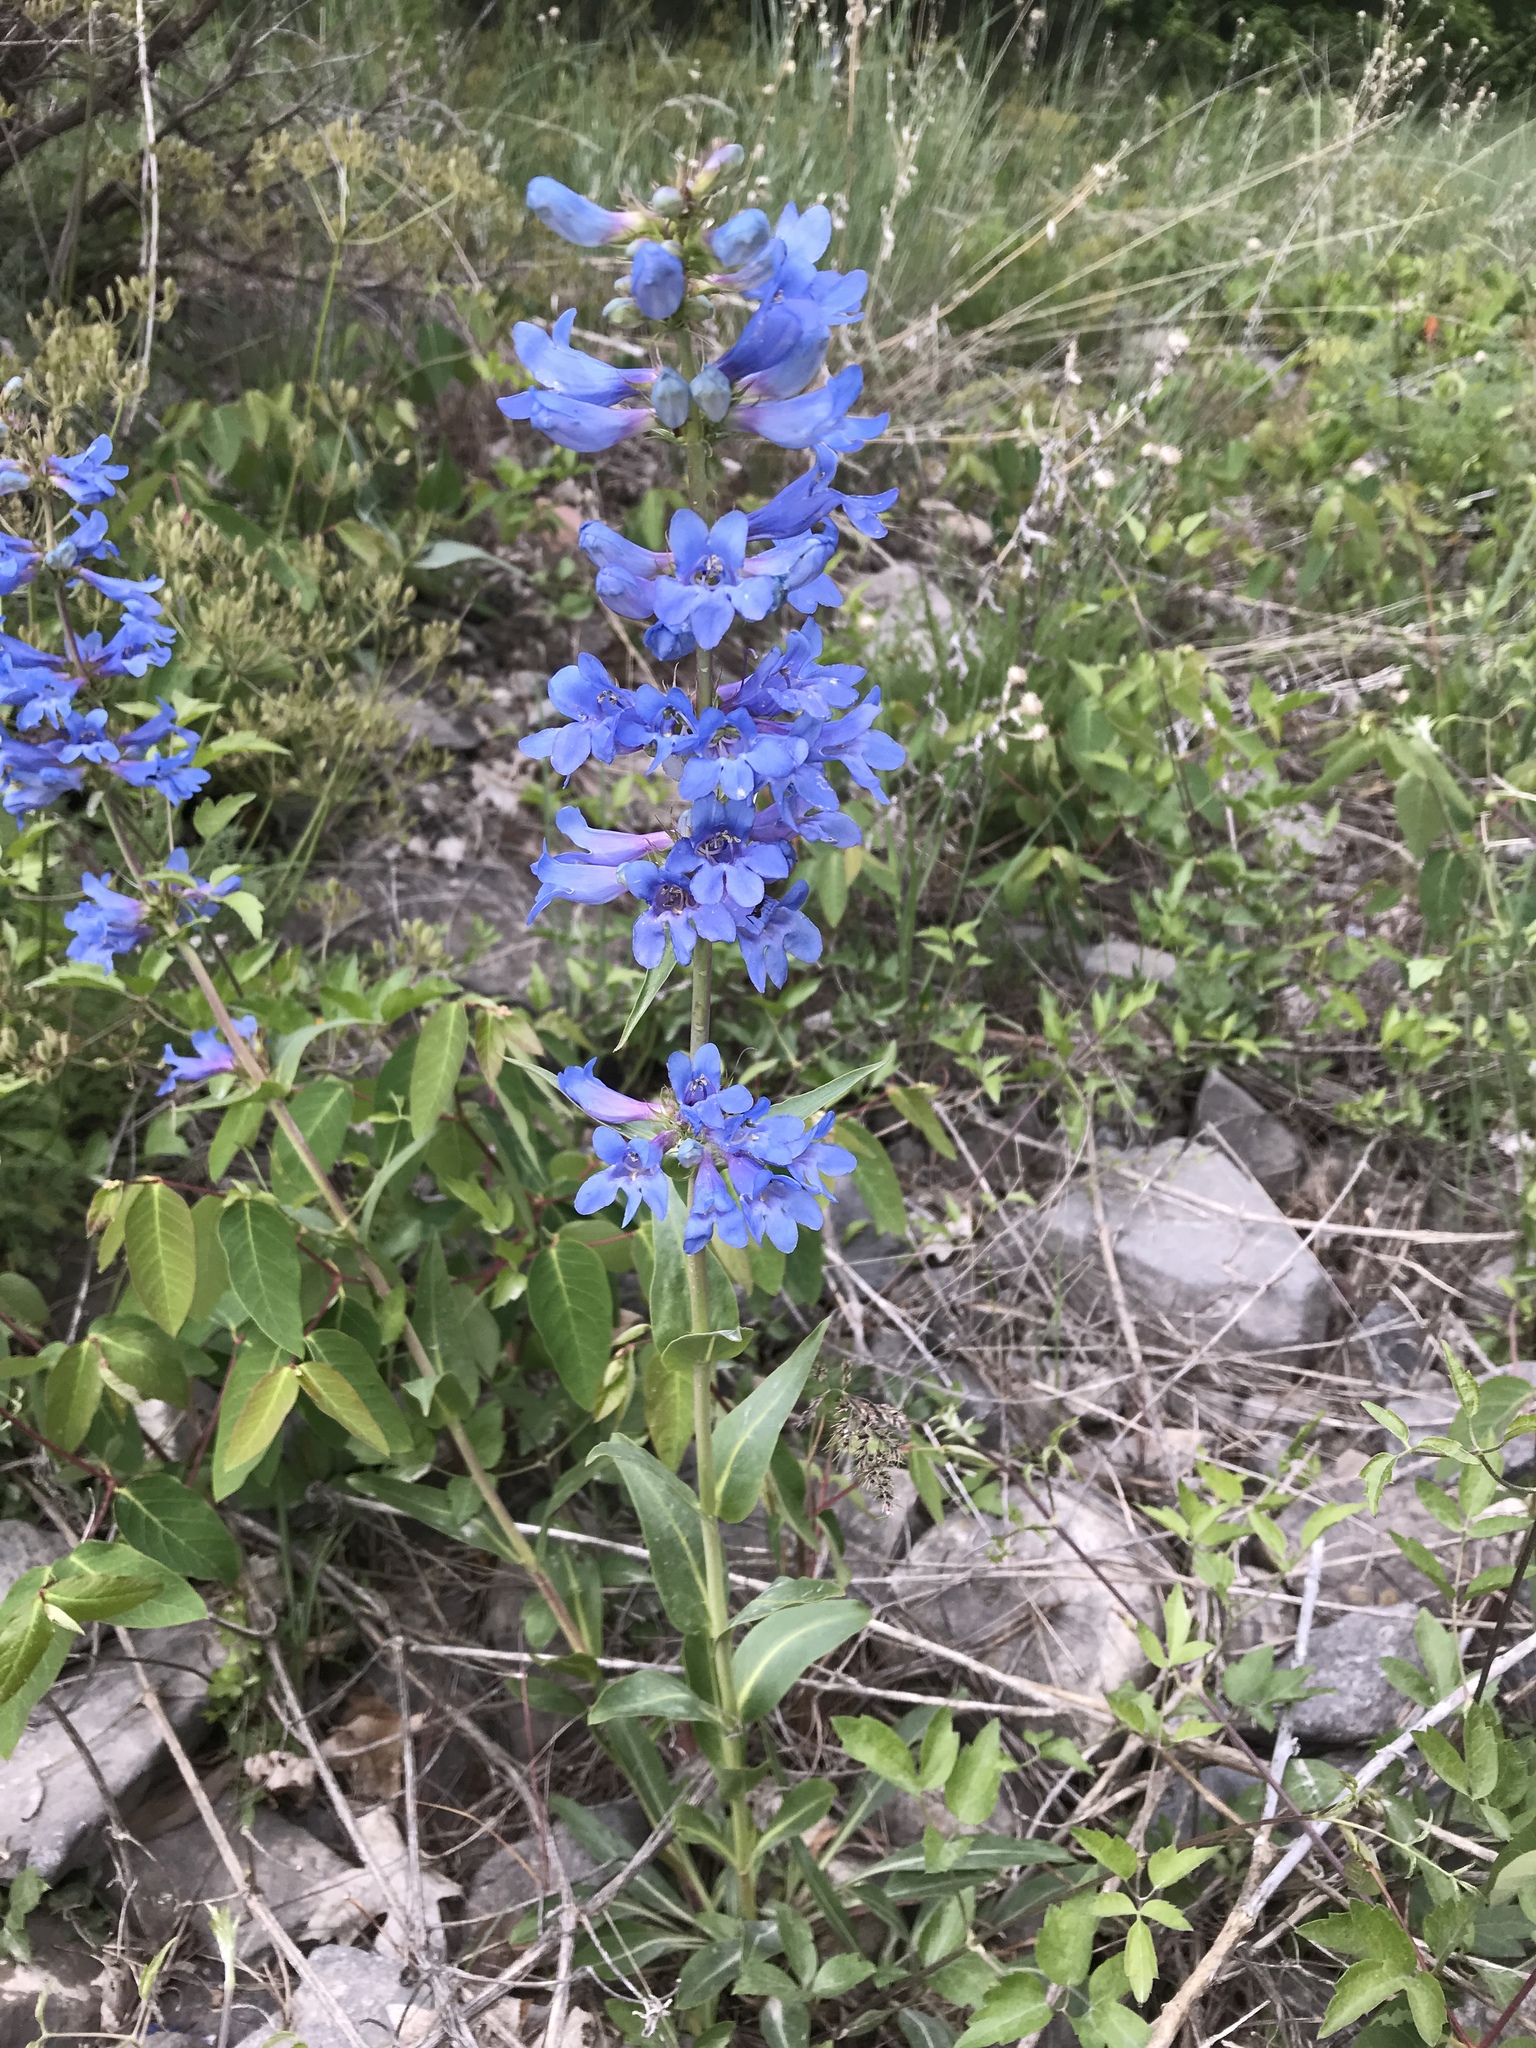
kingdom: Plantae
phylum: Tracheophyta
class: Magnoliopsida
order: Lamiales
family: Plantaginaceae
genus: Penstemon
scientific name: Penstemon cyananthus
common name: Wasatch penstemon
